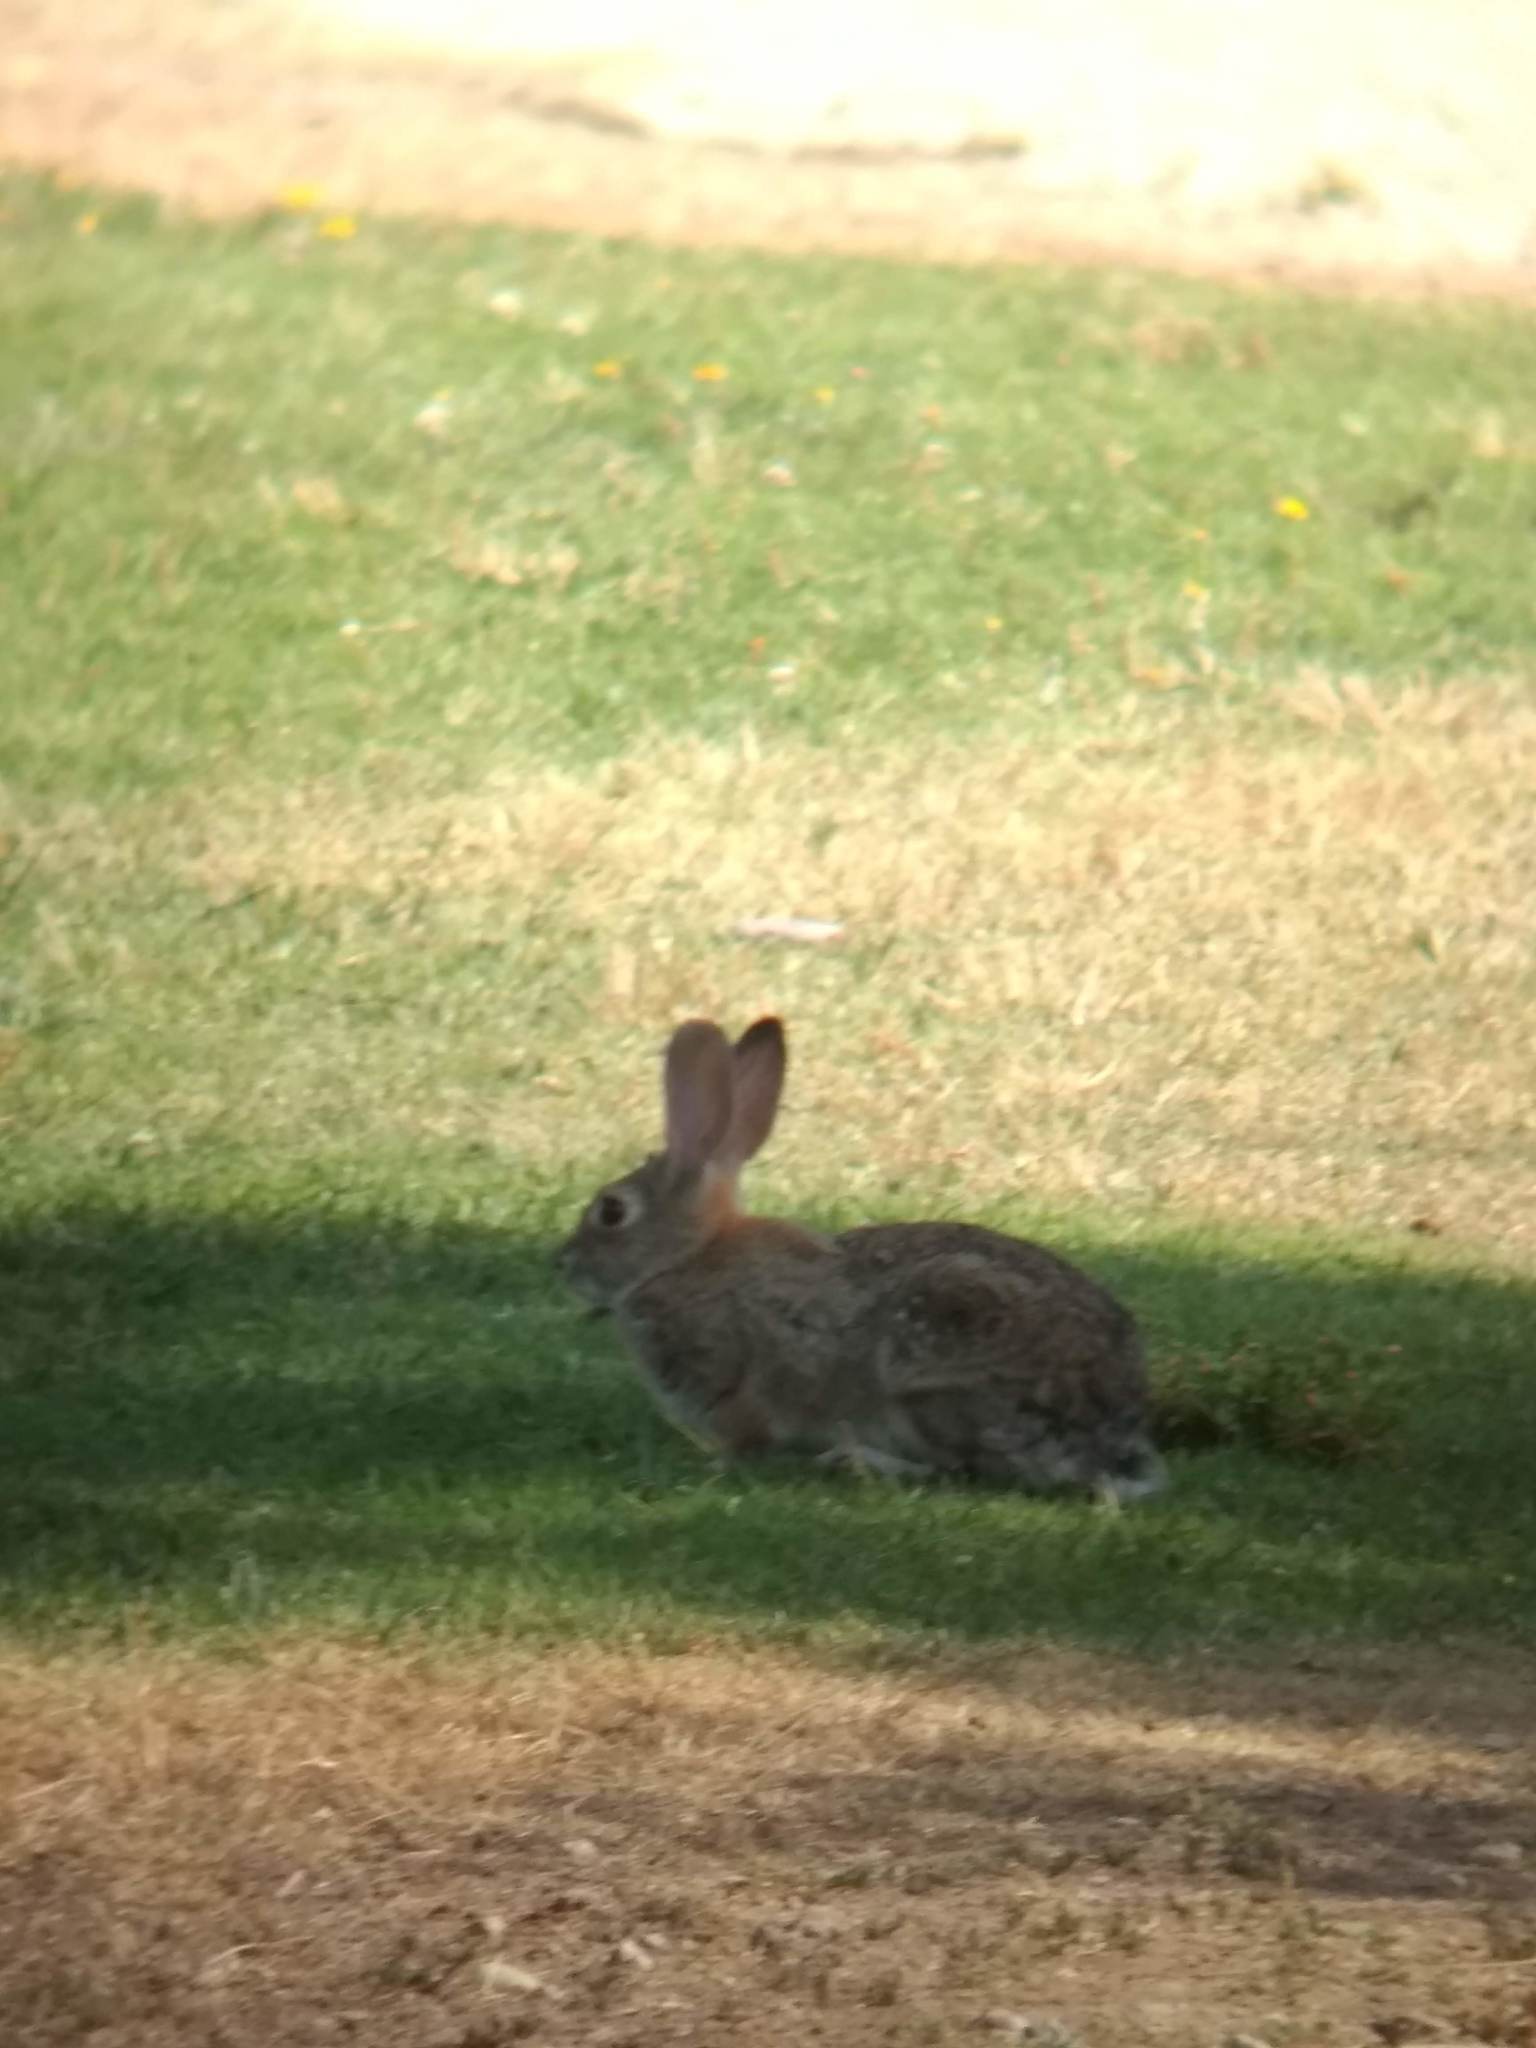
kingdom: Animalia
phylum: Chordata
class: Mammalia
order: Lagomorpha
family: Leporidae
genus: Sylvilagus
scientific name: Sylvilagus audubonii
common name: Desert cottontail
